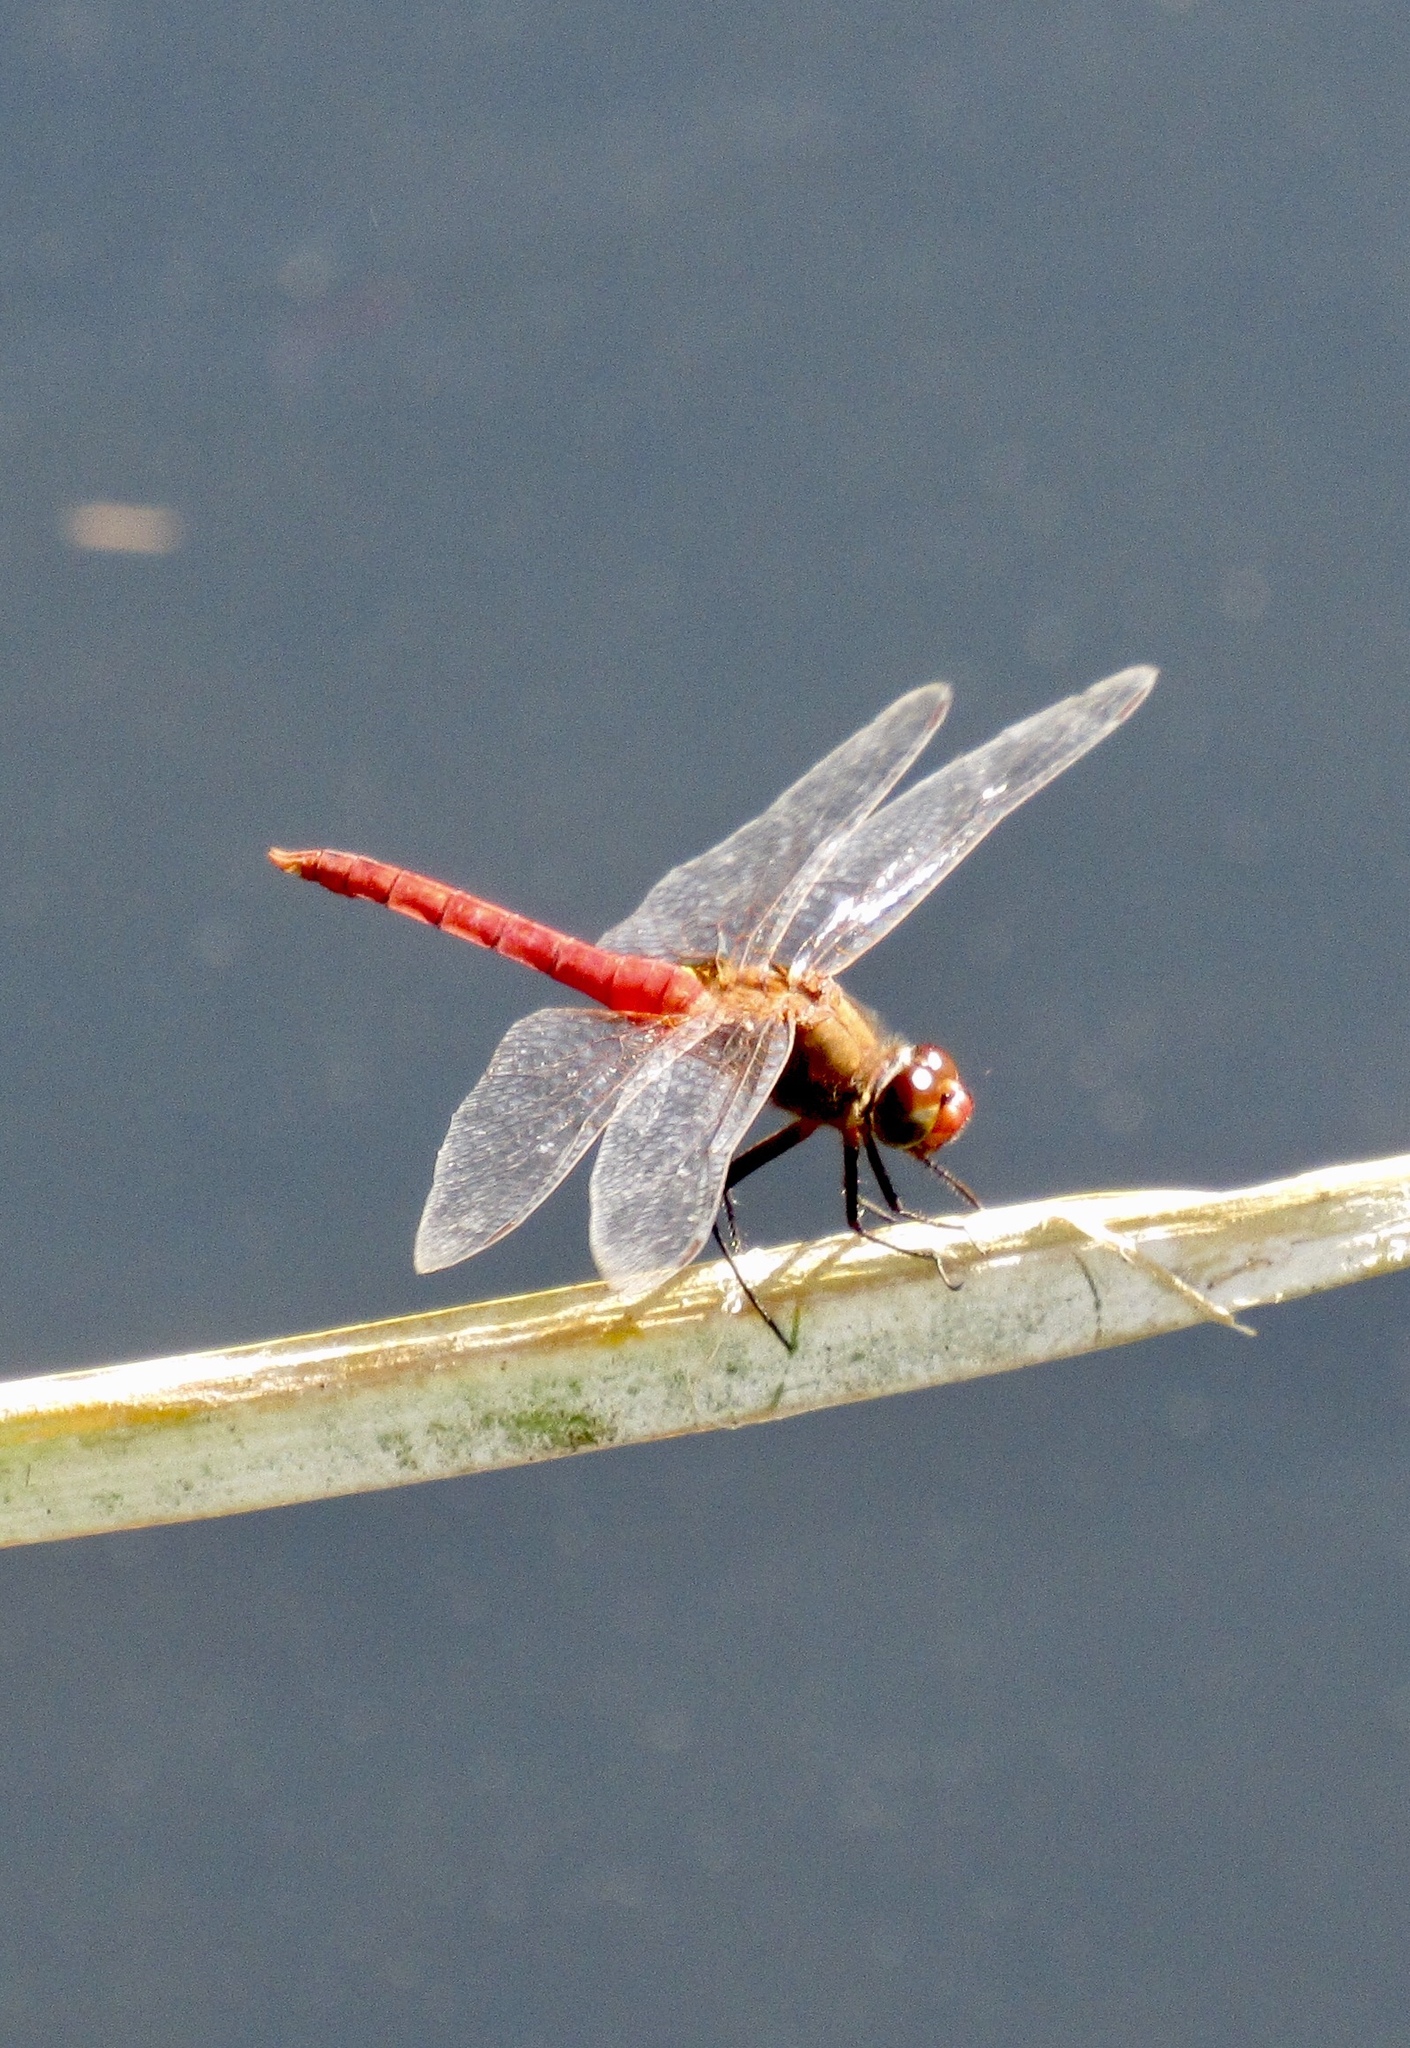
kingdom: Animalia
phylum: Arthropoda
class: Insecta
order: Odonata
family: Libellulidae
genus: Brachymesia
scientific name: Brachymesia furcata
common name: Red-taled pennant
